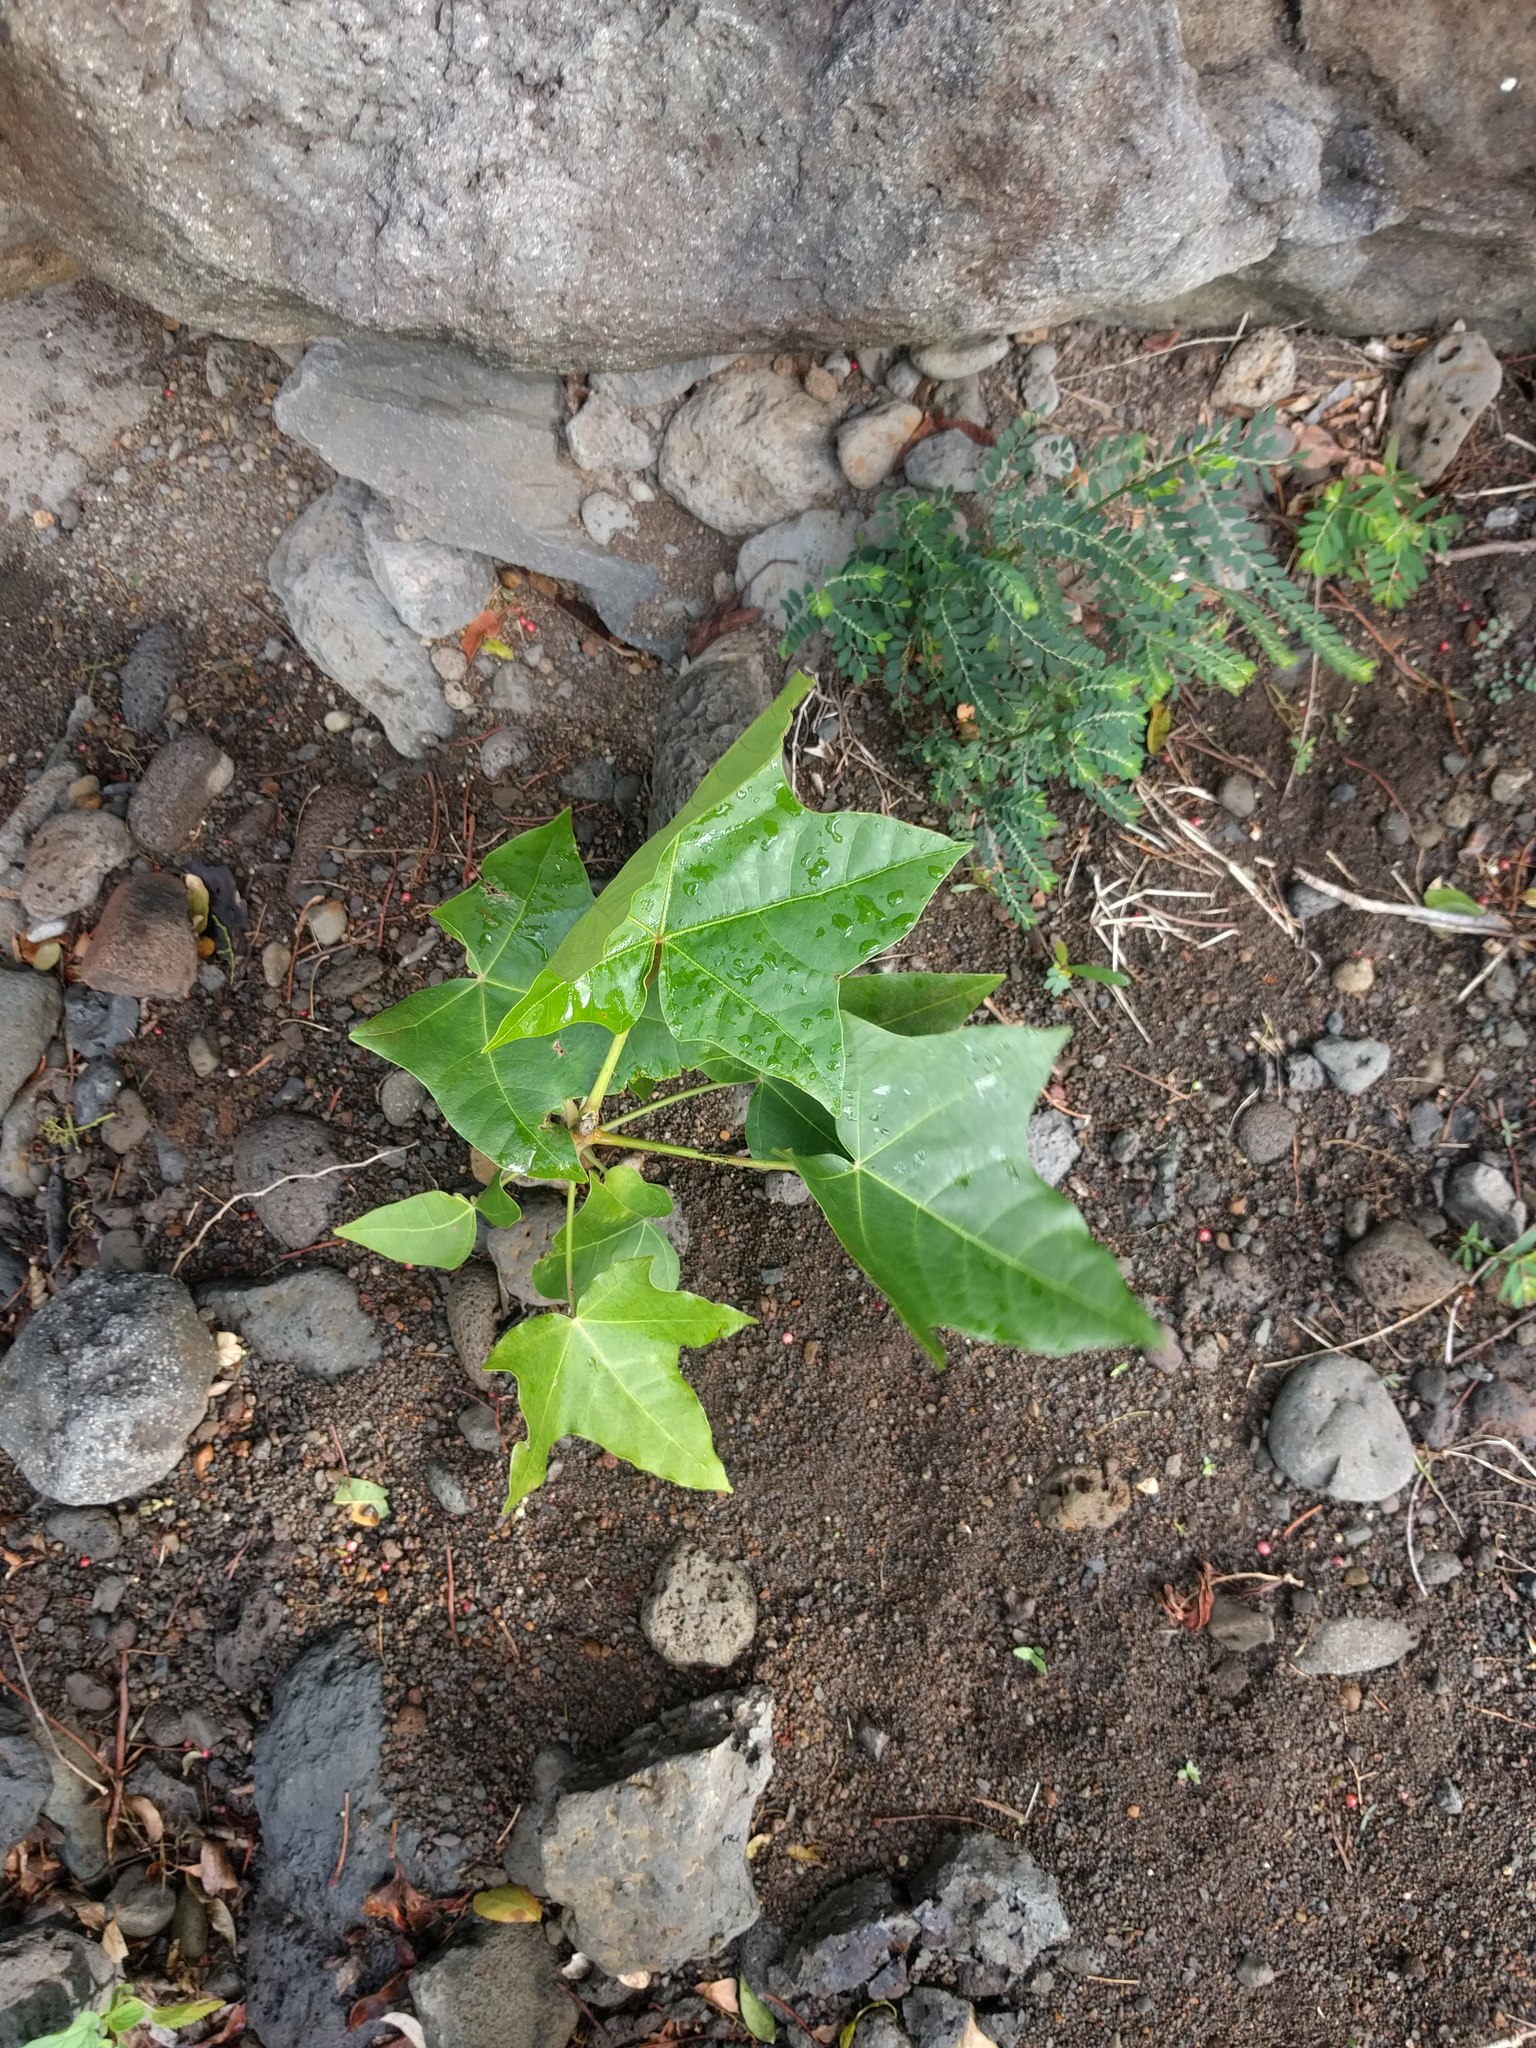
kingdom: Plantae
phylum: Tracheophyta
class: Magnoliopsida
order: Malpighiales
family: Euphorbiaceae
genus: Aleurites
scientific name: Aleurites moluccanus
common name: Candlenut tree
